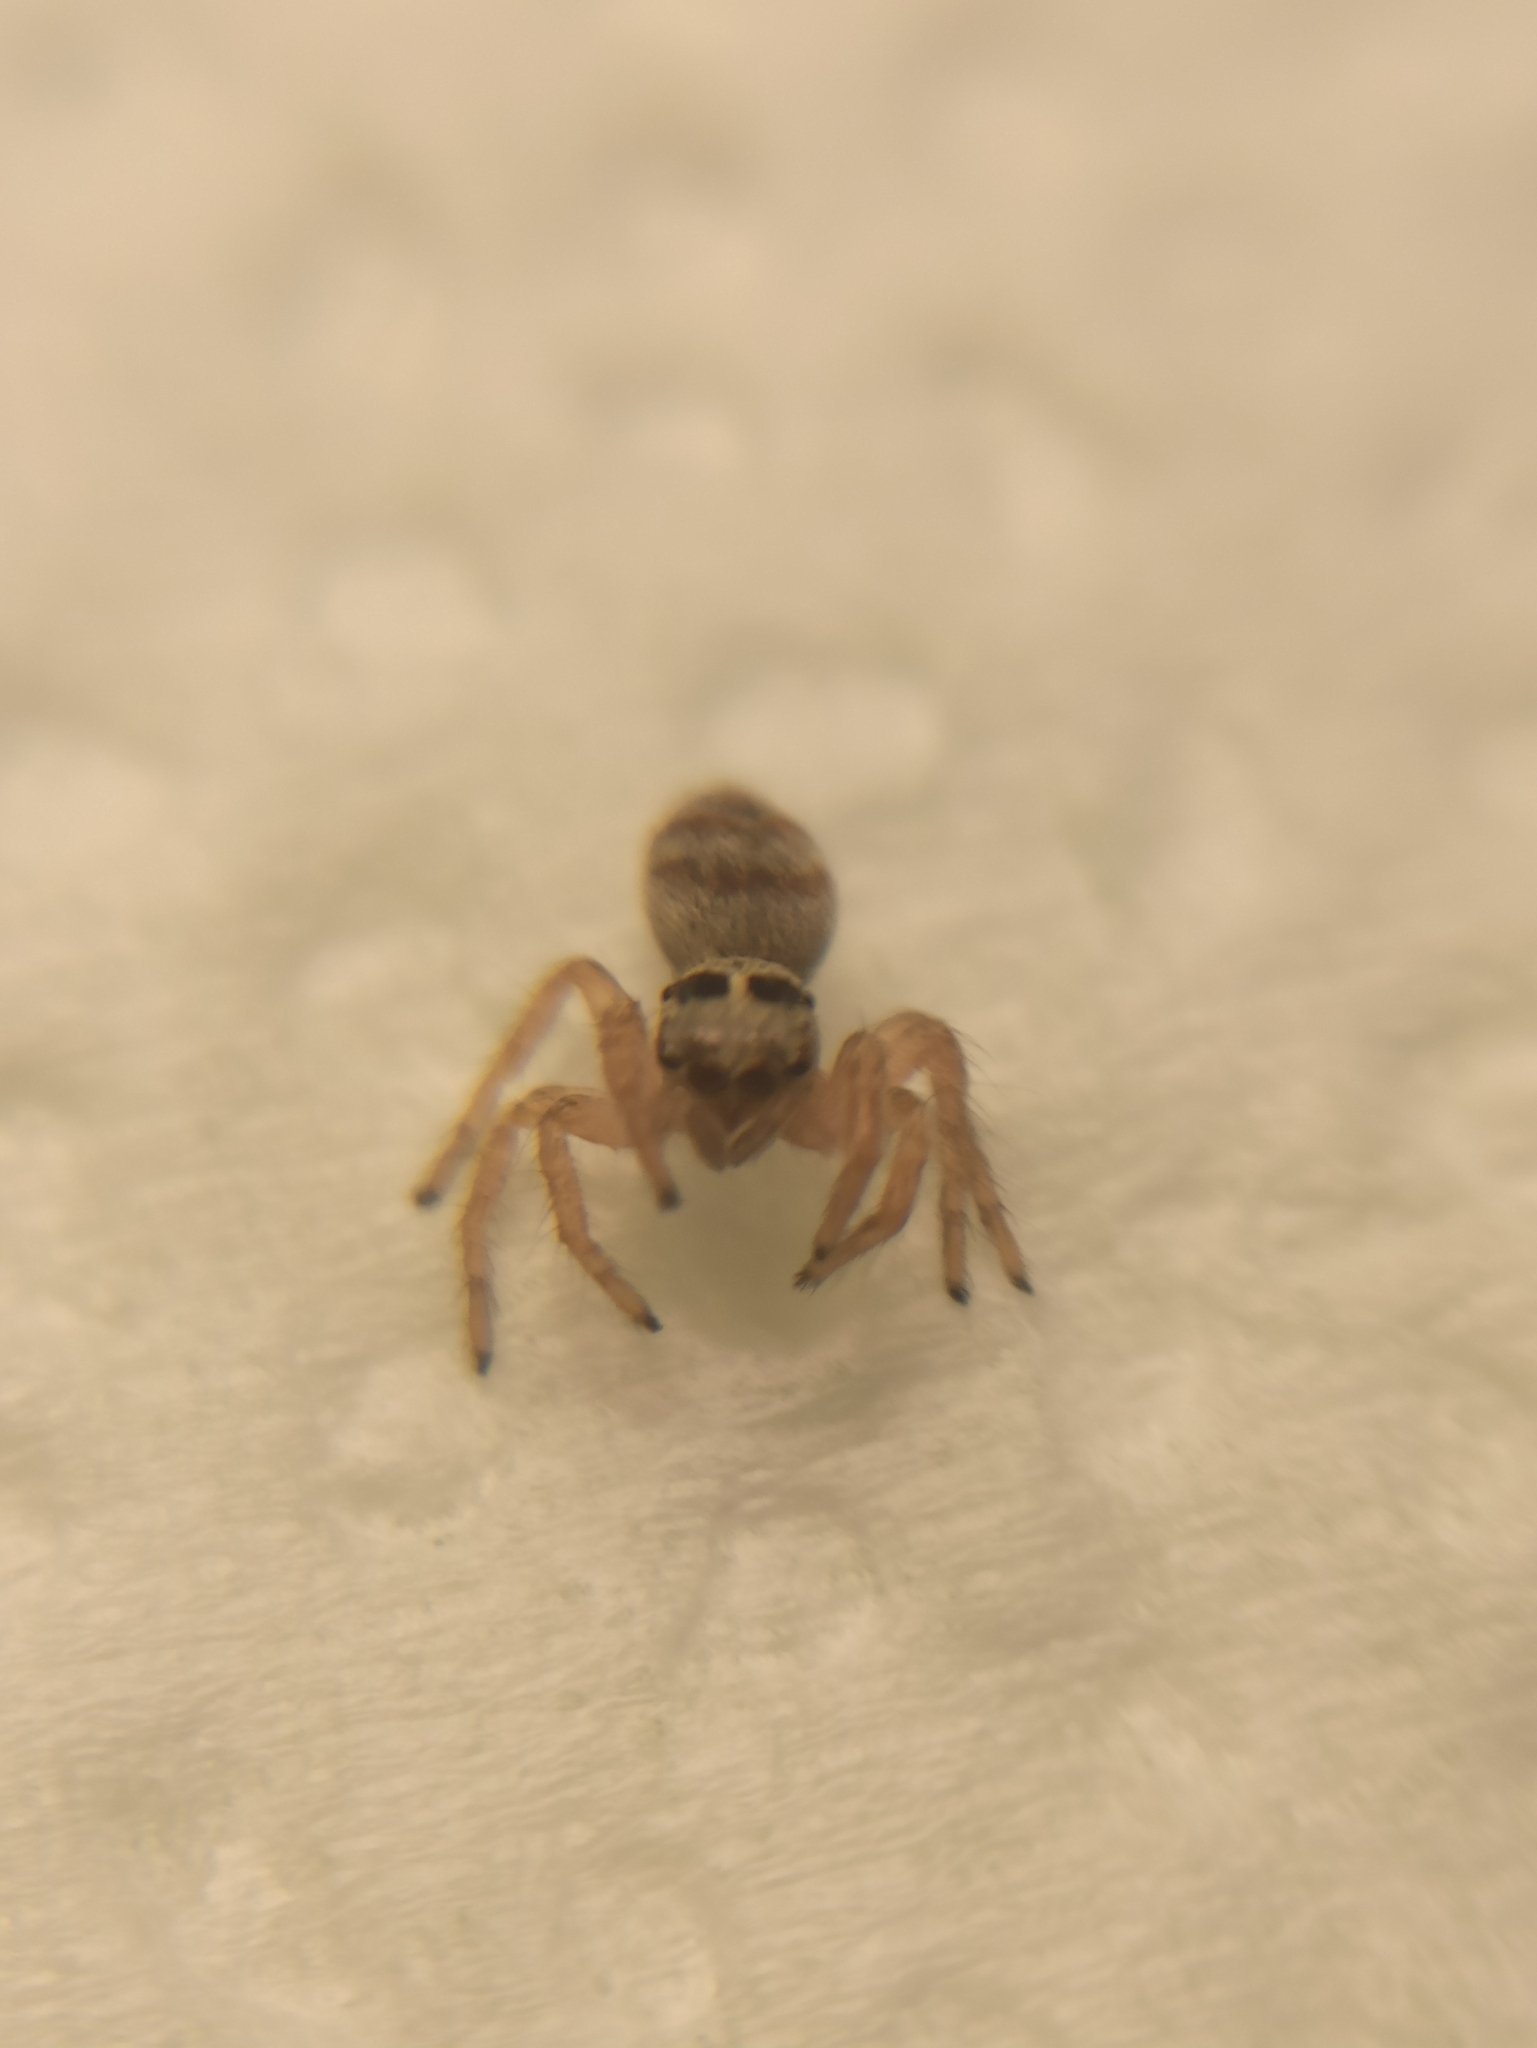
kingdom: Animalia
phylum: Arthropoda
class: Arachnida
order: Araneae
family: Salticidae
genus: Philaeus
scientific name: Philaeus chrysops
